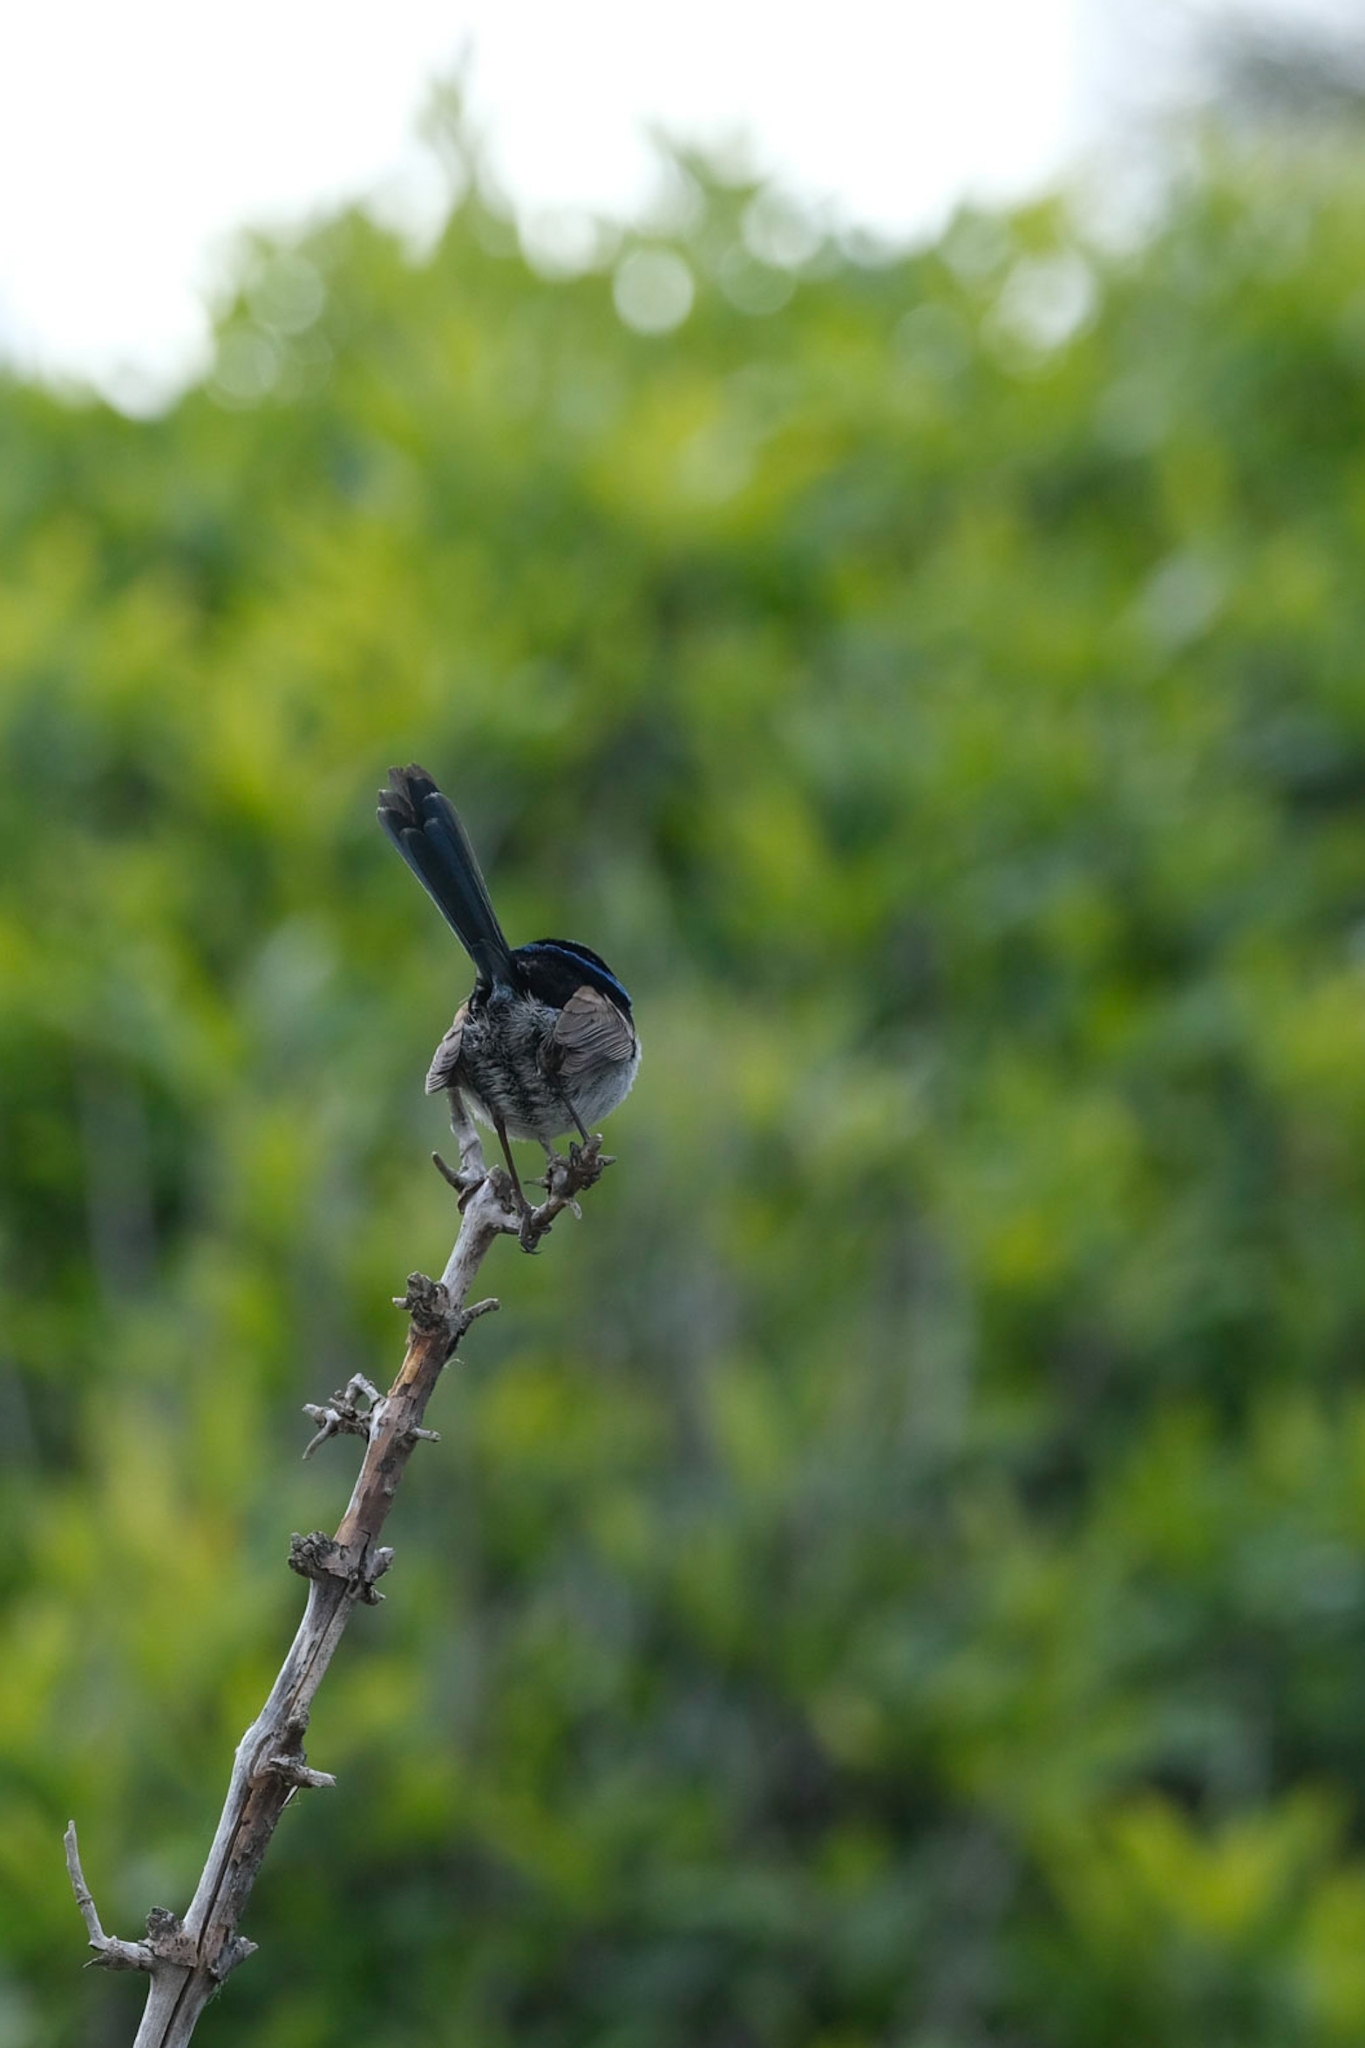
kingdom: Animalia
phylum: Chordata
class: Aves
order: Passeriformes
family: Maluridae
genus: Malurus
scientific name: Malurus cyaneus
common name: Superb fairywren
